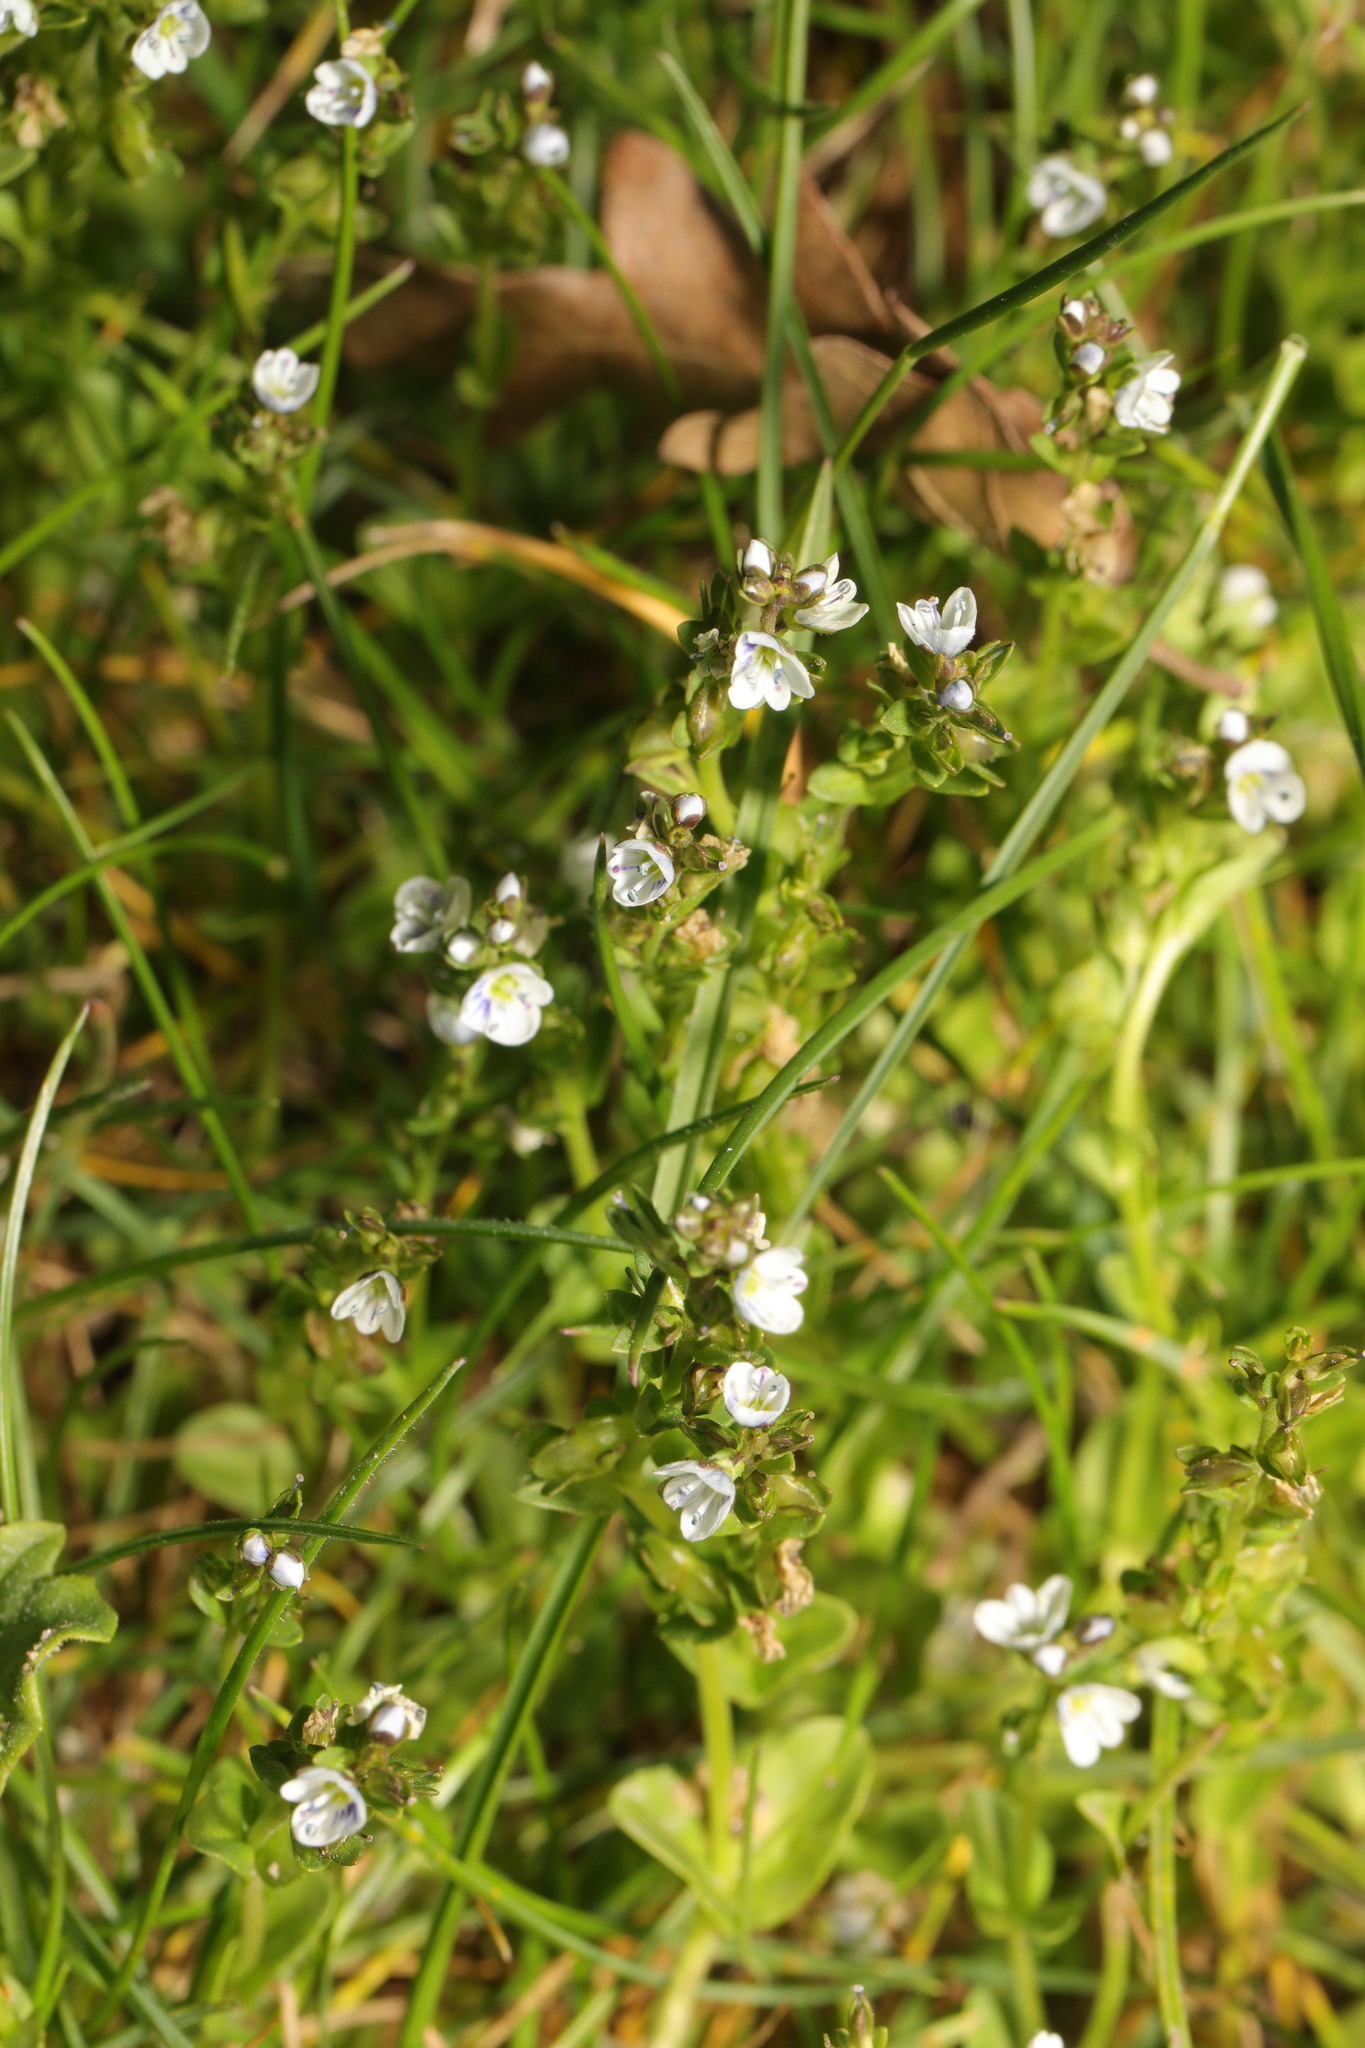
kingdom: Plantae
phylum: Tracheophyta
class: Magnoliopsida
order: Lamiales
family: Plantaginaceae
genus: Veronica
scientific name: Veronica serpyllifolia
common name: Thyme-leaved speedwell
